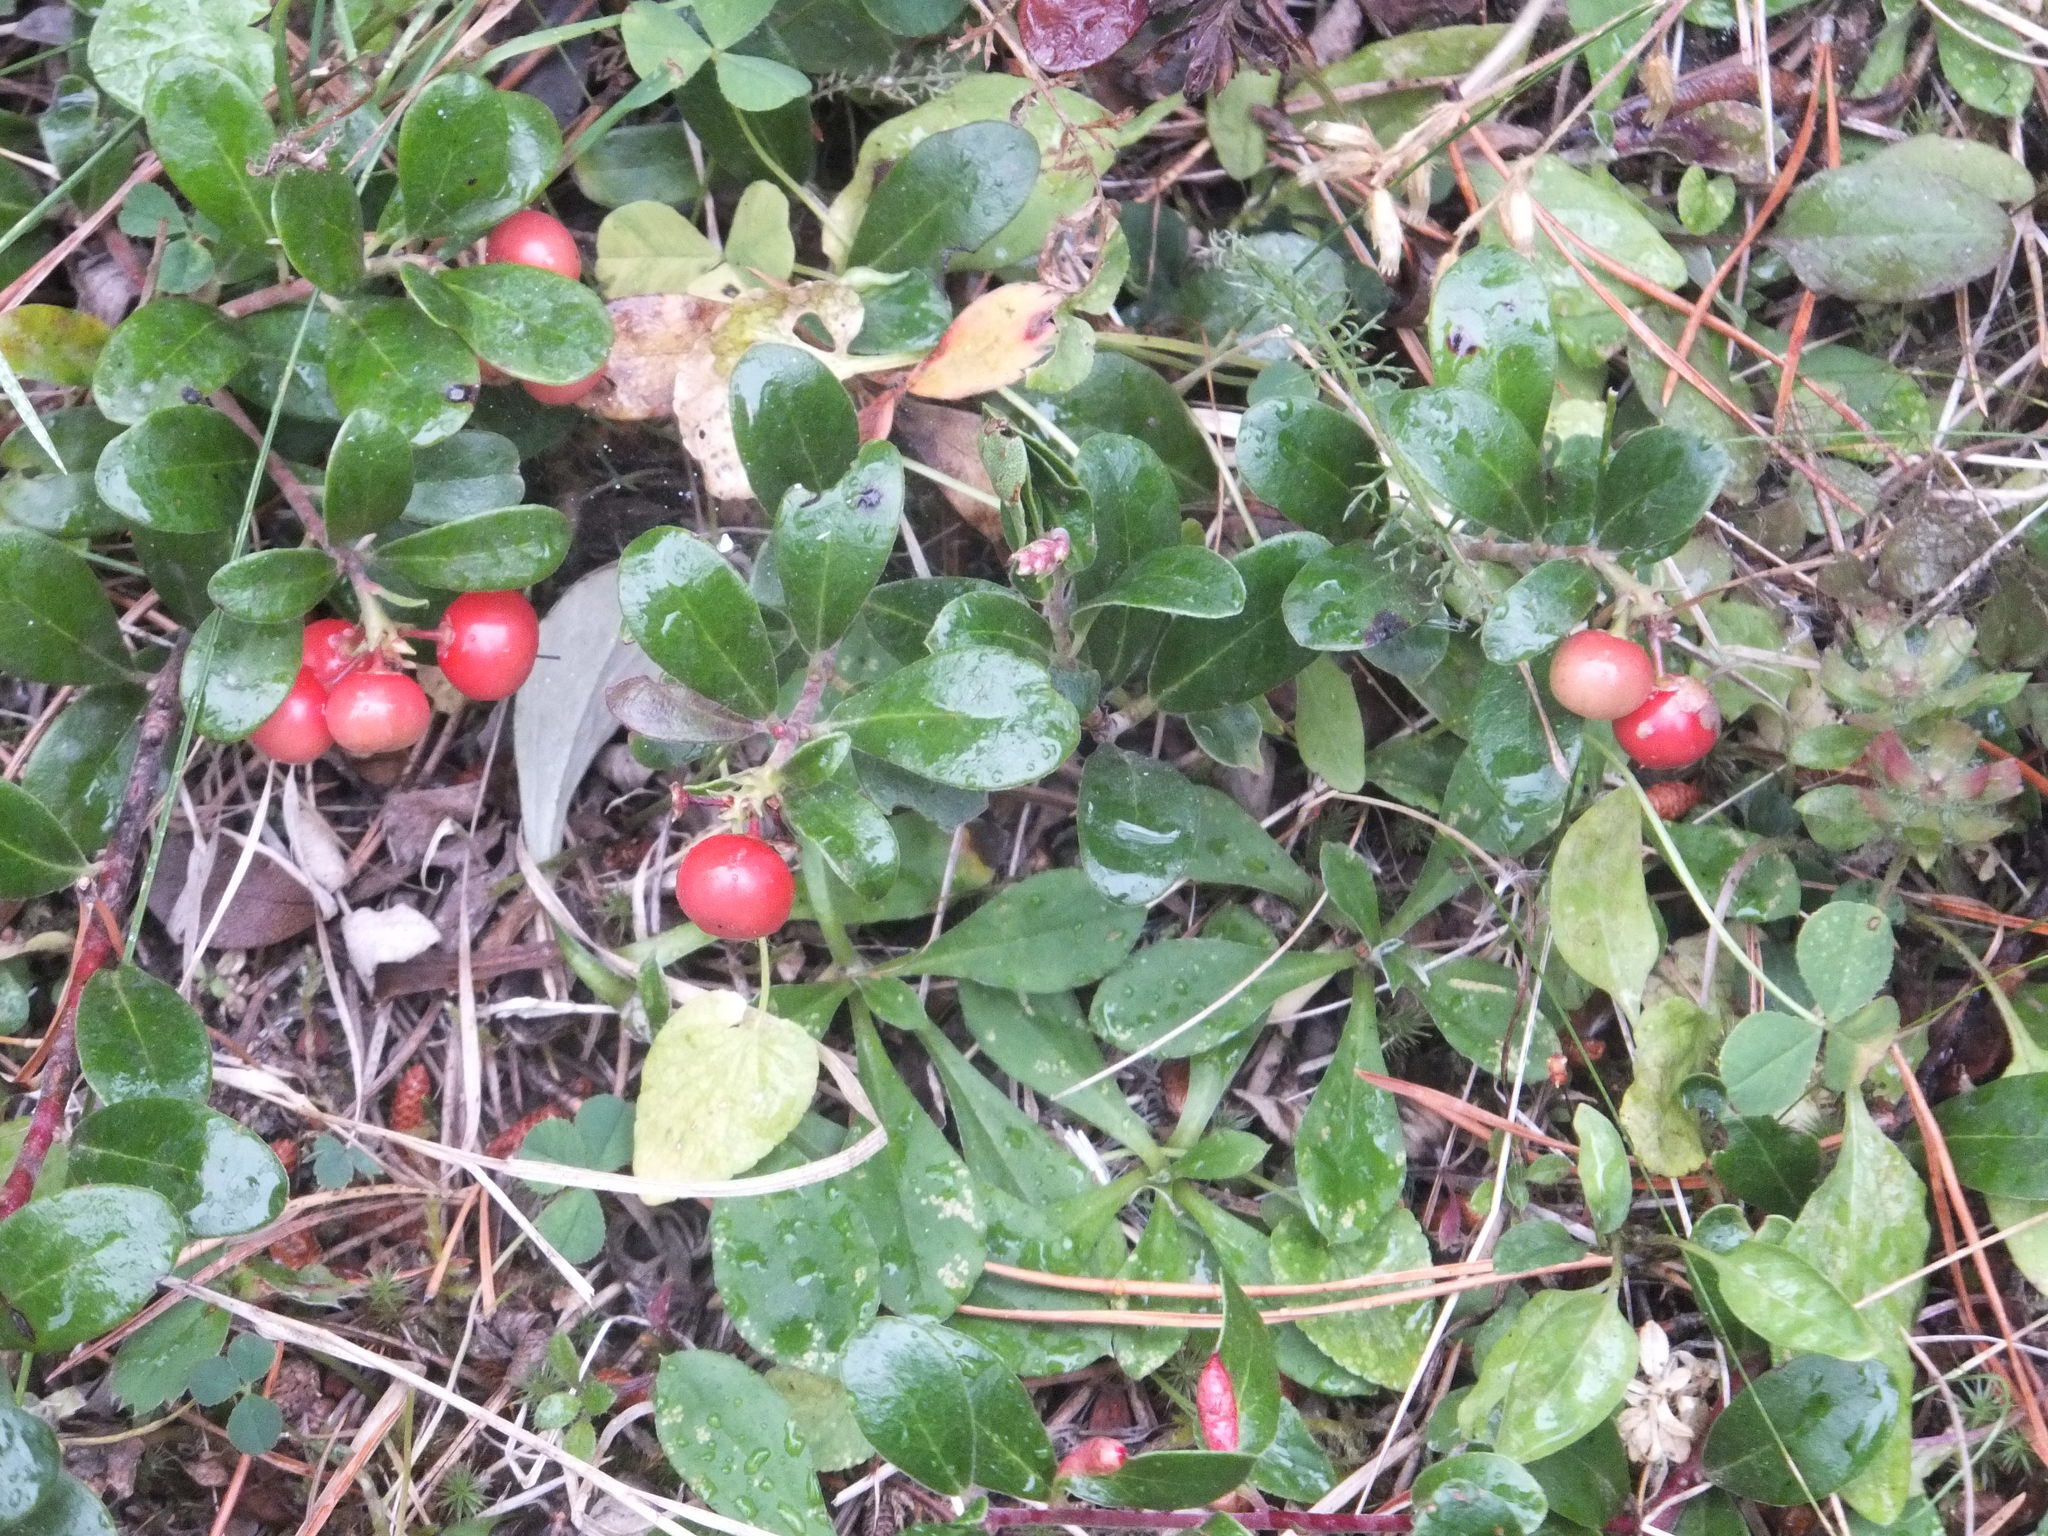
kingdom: Plantae
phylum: Tracheophyta
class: Magnoliopsida
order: Ericales
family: Ericaceae
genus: Arctostaphylos
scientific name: Arctostaphylos uva-ursi
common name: Bearberry
